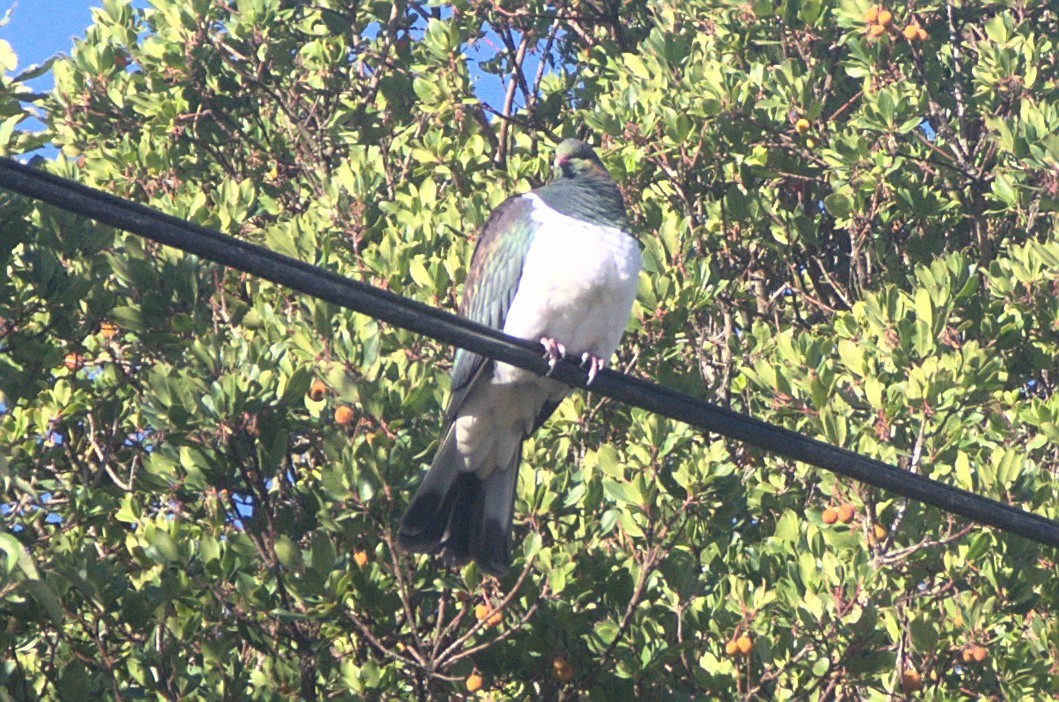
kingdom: Animalia
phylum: Chordata
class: Aves
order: Columbiformes
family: Columbidae
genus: Hemiphaga
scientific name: Hemiphaga novaeseelandiae
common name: New zealand pigeon
